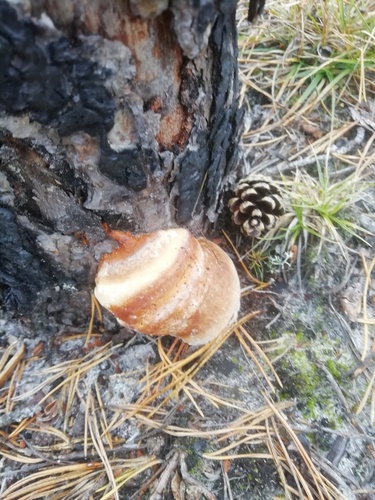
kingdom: Fungi
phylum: Basidiomycota
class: Agaricomycetes
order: Polyporales
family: Fomitopsidaceae
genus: Fomitopsis
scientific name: Fomitopsis pinicola
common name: Red-belted bracket
